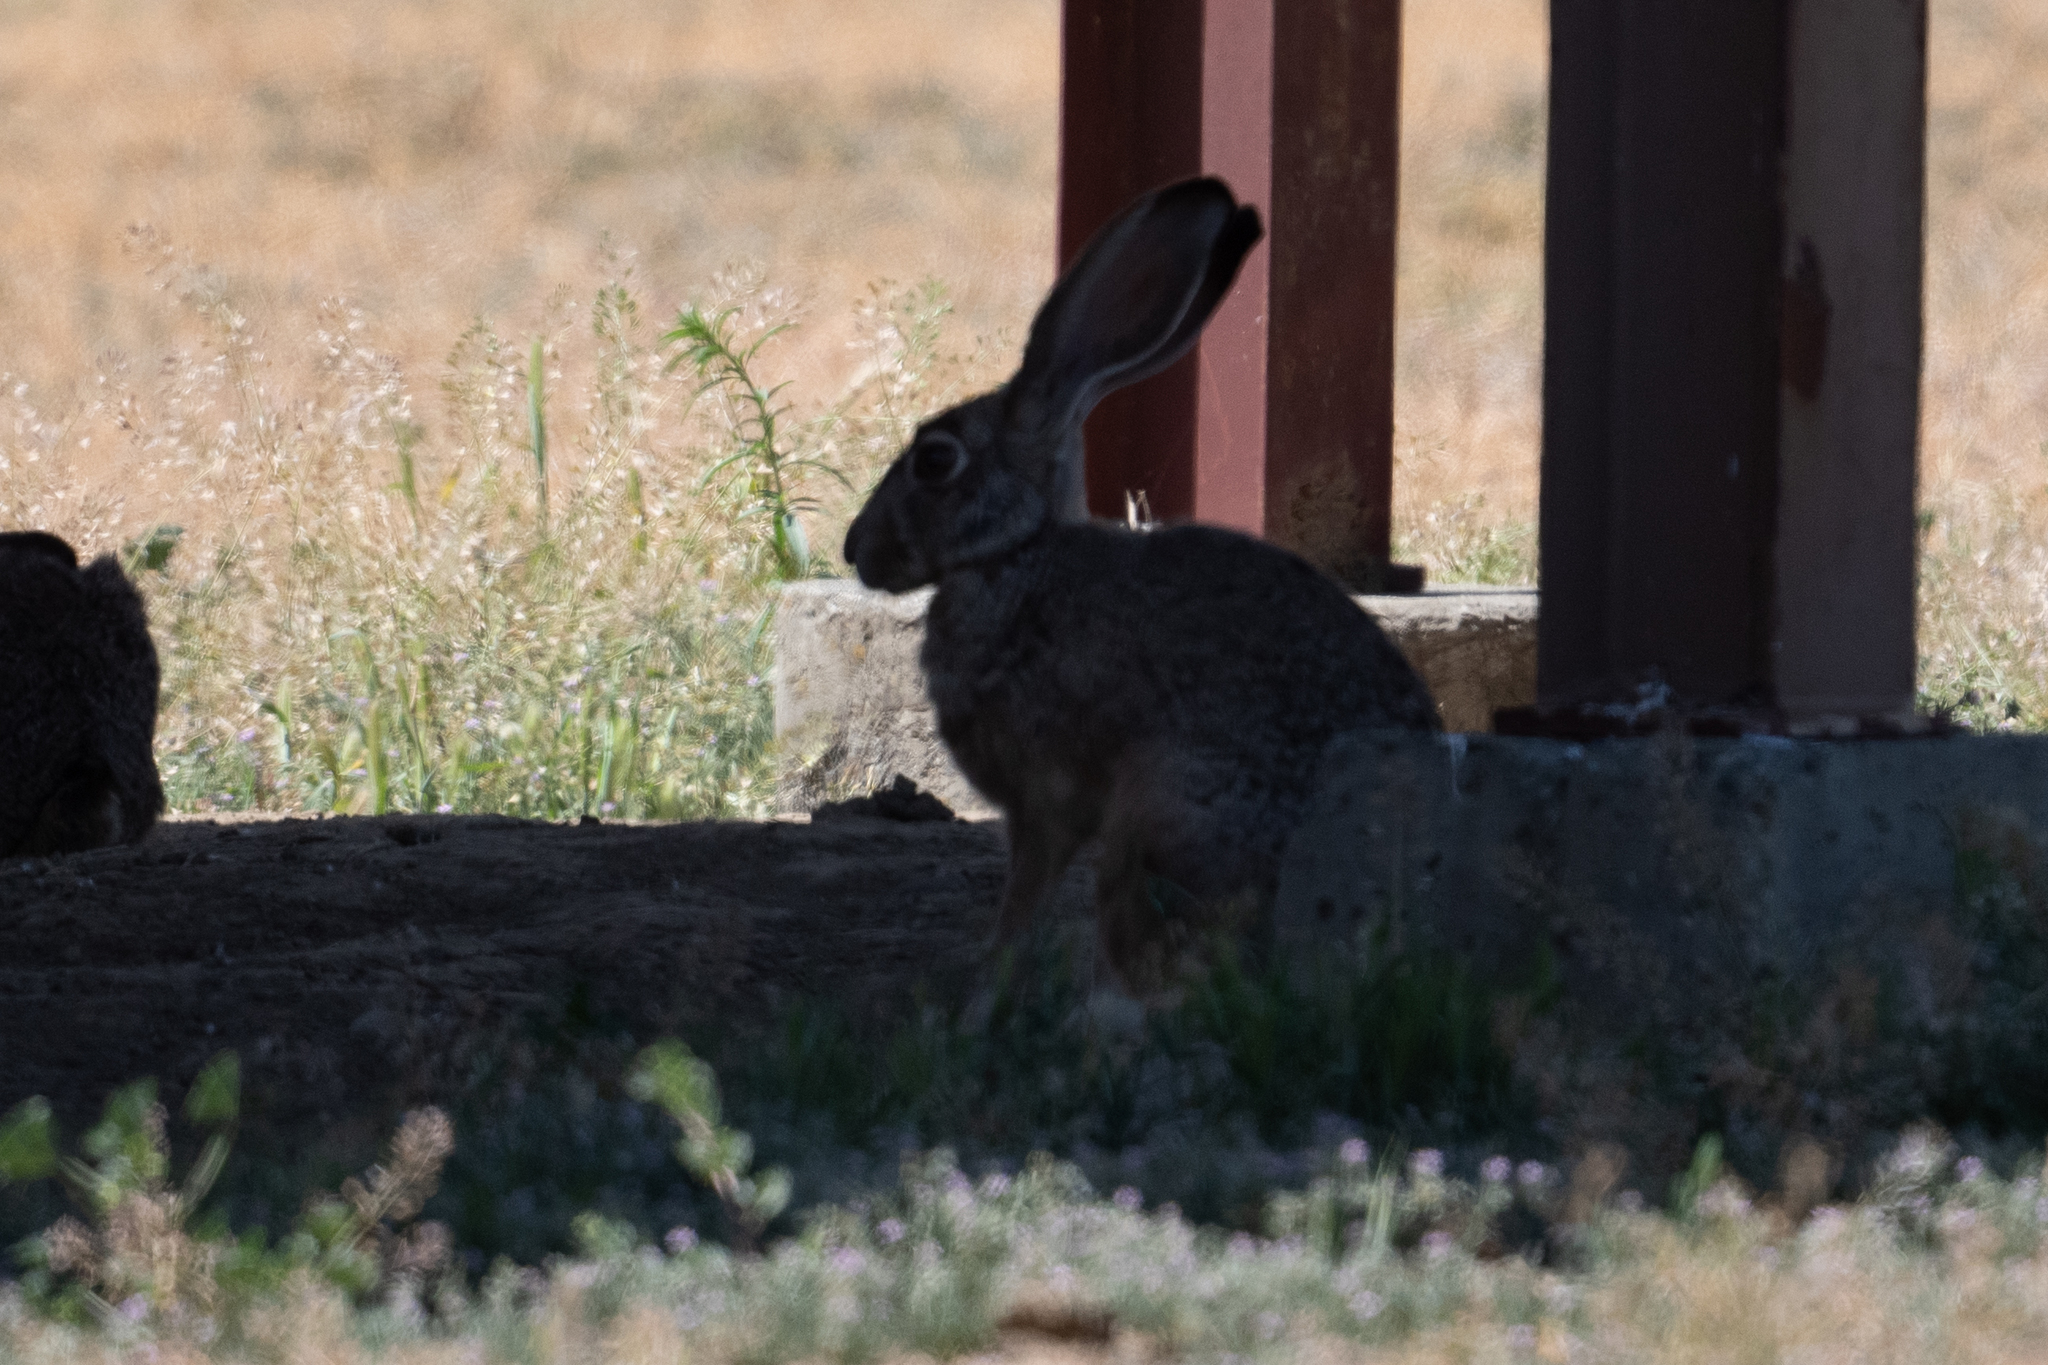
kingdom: Animalia
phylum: Chordata
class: Mammalia
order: Lagomorpha
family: Leporidae
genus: Lepus
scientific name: Lepus californicus
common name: Black-tailed jackrabbit
